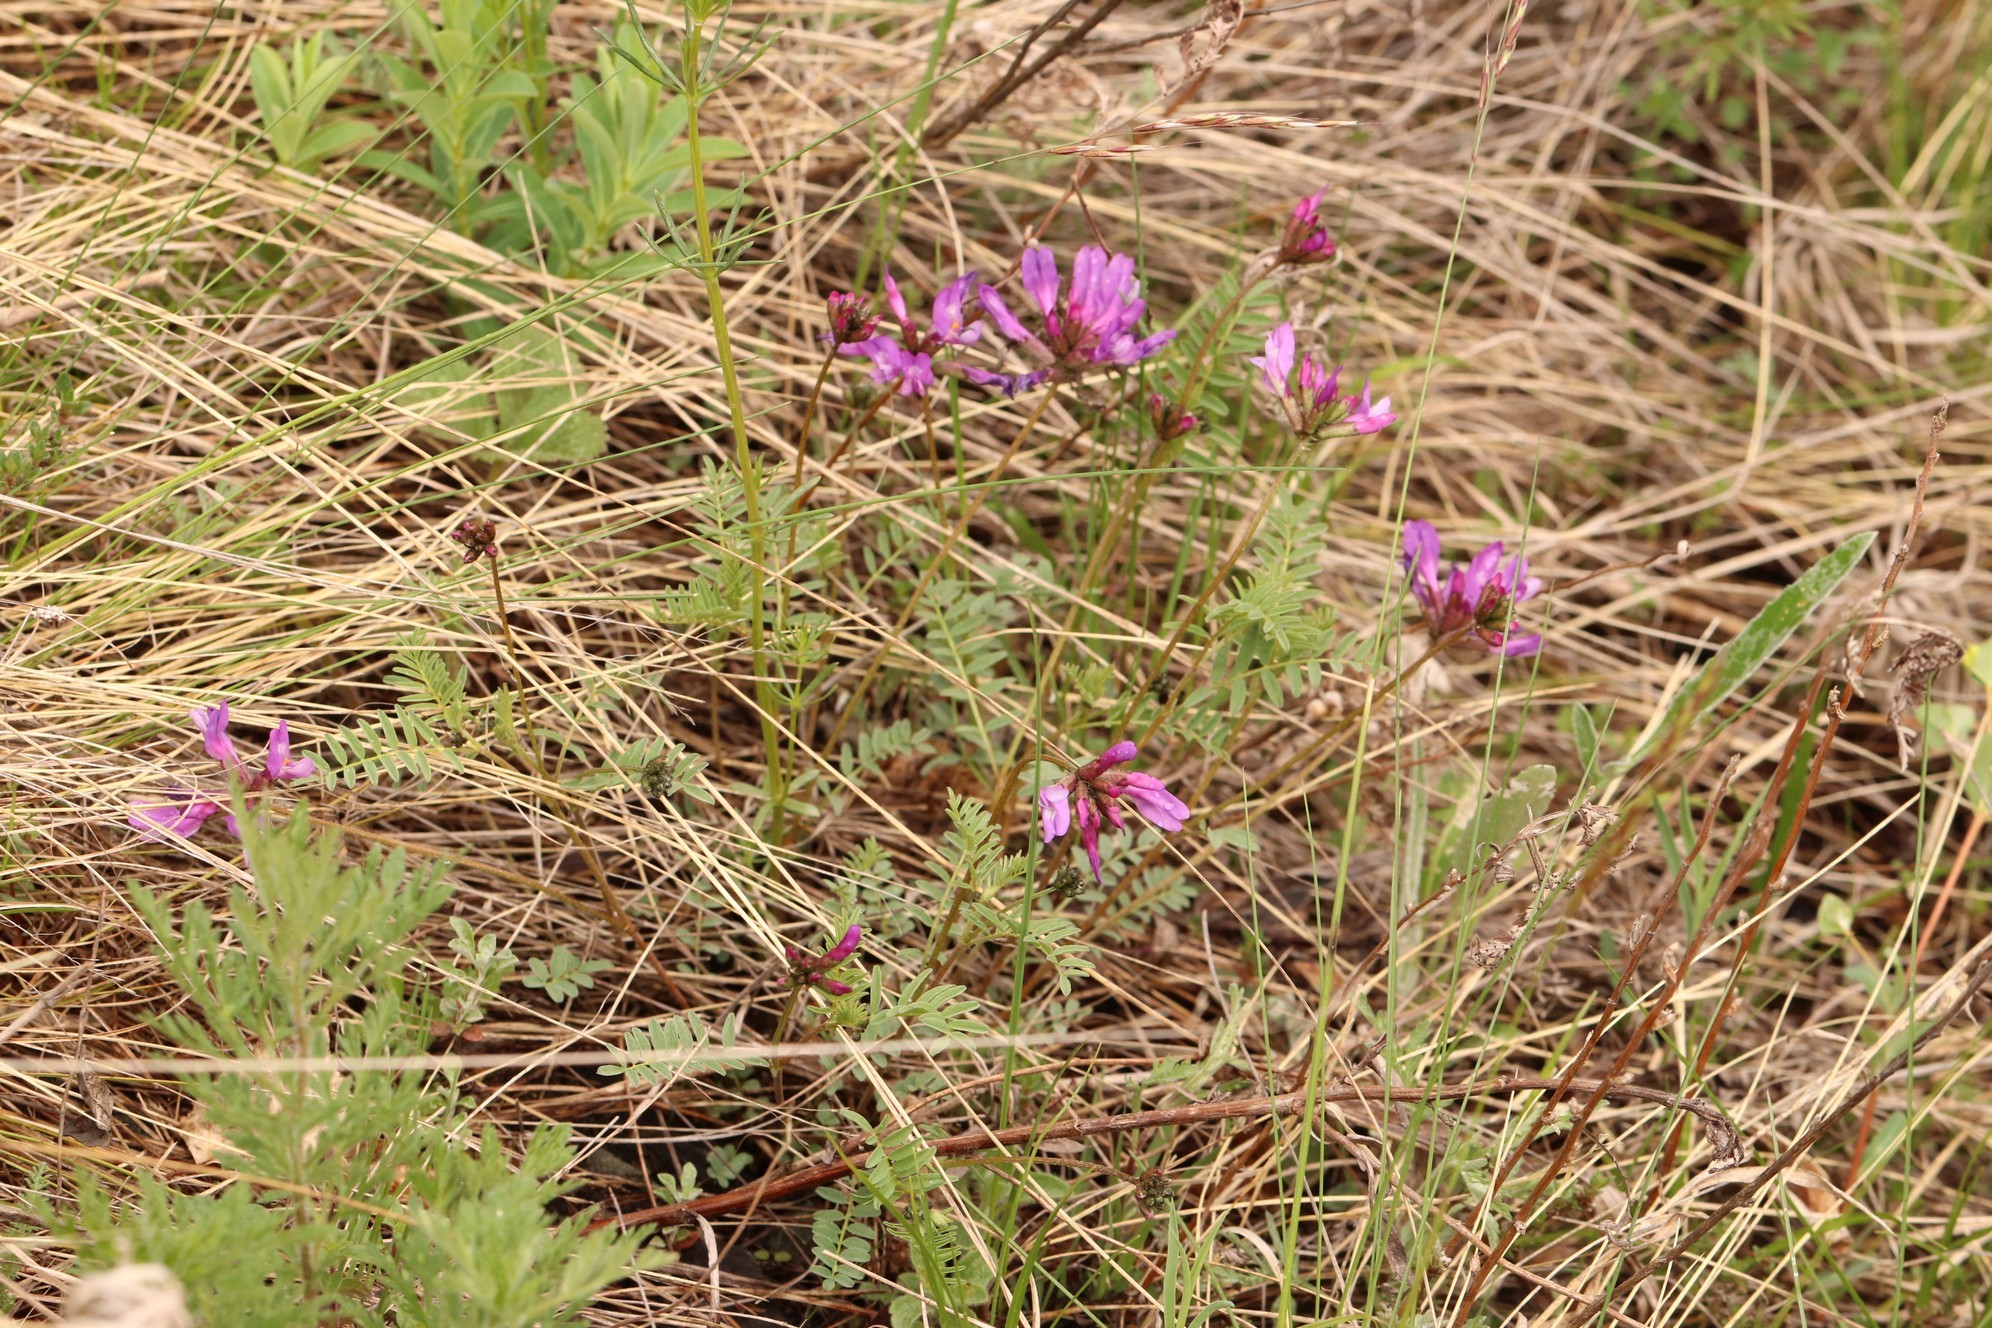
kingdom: Plantae
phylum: Tracheophyta
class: Magnoliopsida
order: Fabales
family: Fabaceae
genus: Astragalus
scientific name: Astragalus ceratoides
